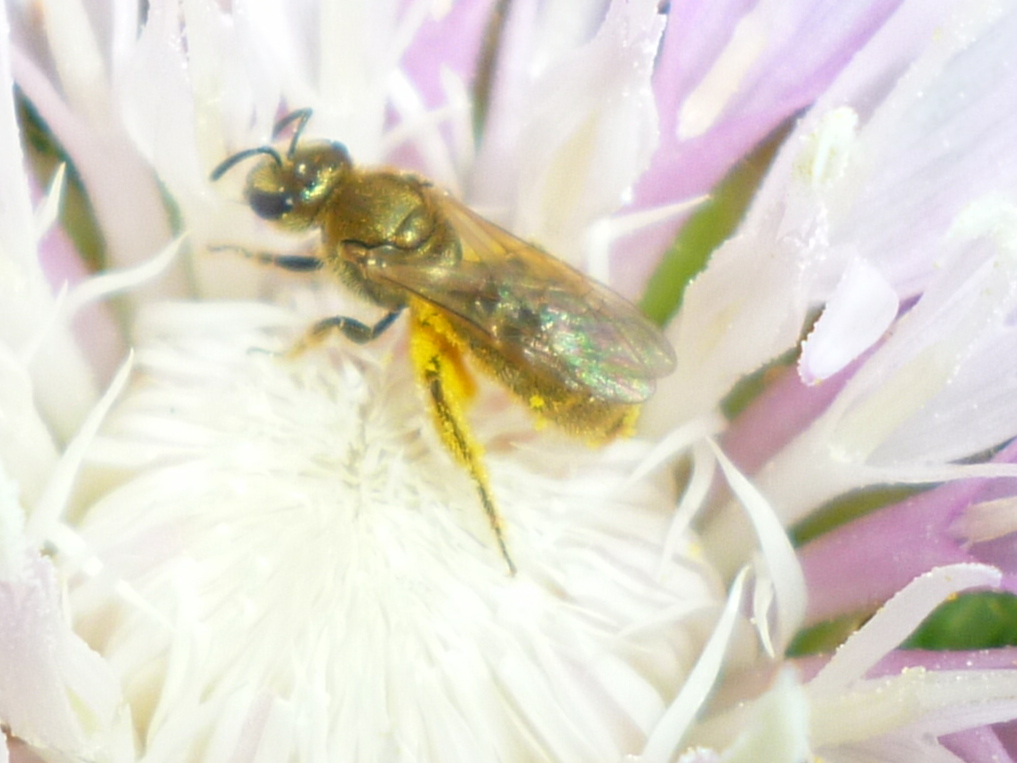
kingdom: Animalia
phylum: Arthropoda
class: Insecta
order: Hymenoptera
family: Halictidae
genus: Lasioglossum
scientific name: Lasioglossum pilosum
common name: Hairy metallic-sweat bee
